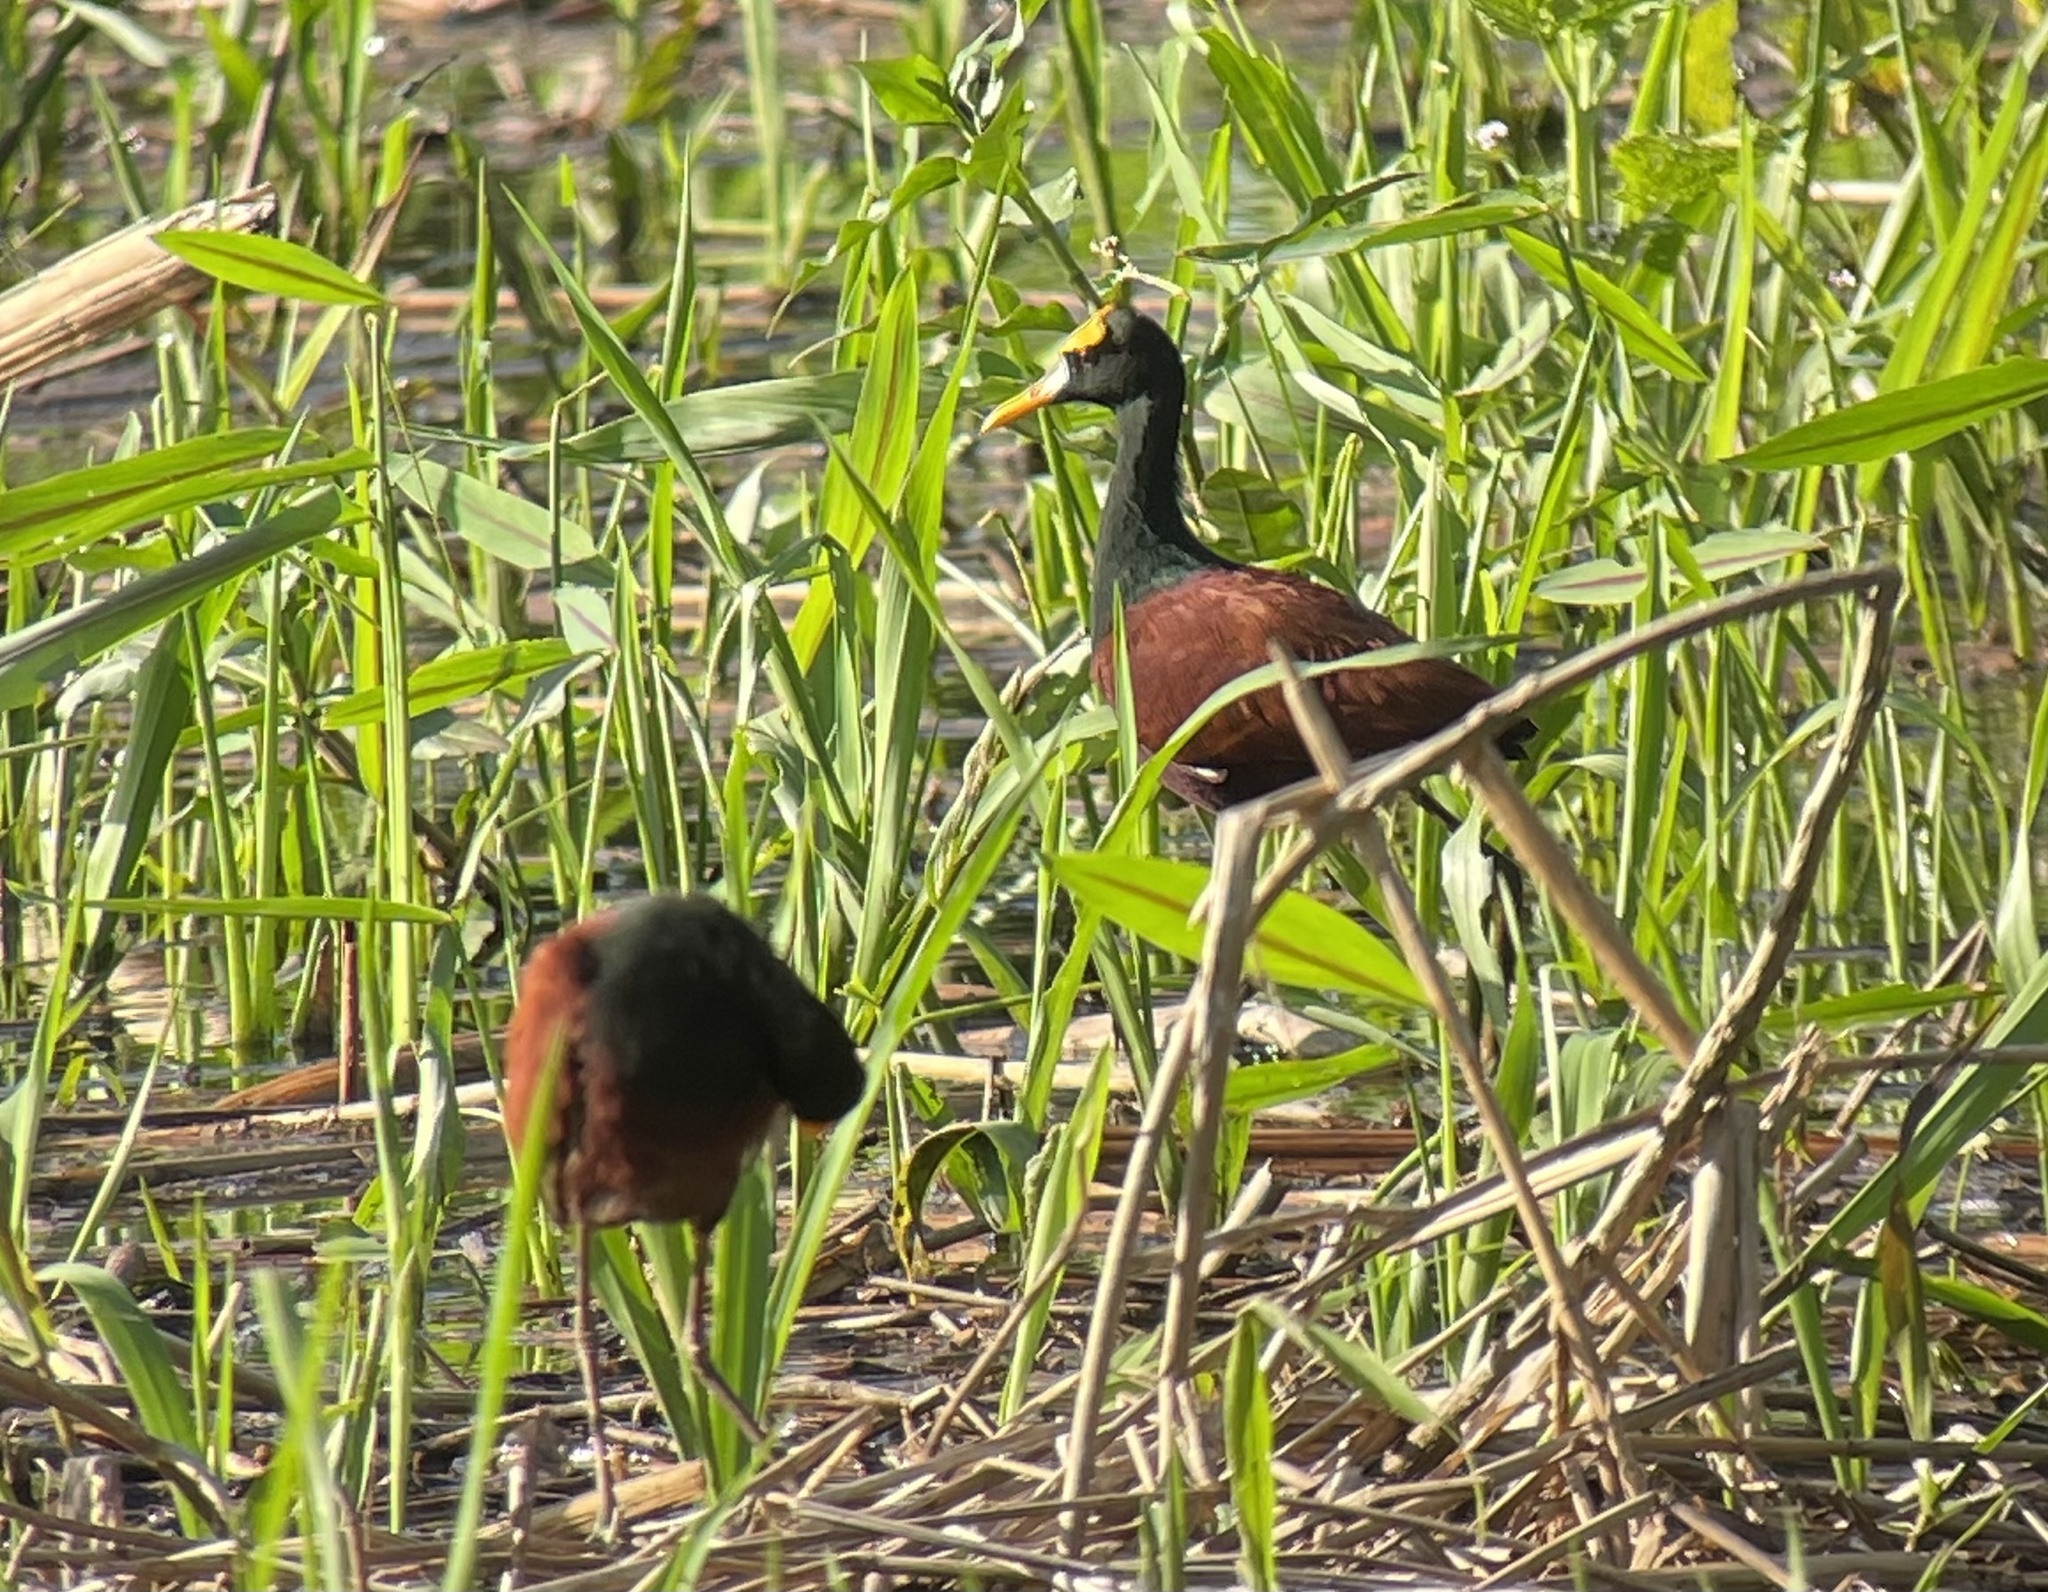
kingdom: Animalia
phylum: Chordata
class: Aves
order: Charadriiformes
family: Jacanidae
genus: Jacana
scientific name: Jacana spinosa
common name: Northern jacana
